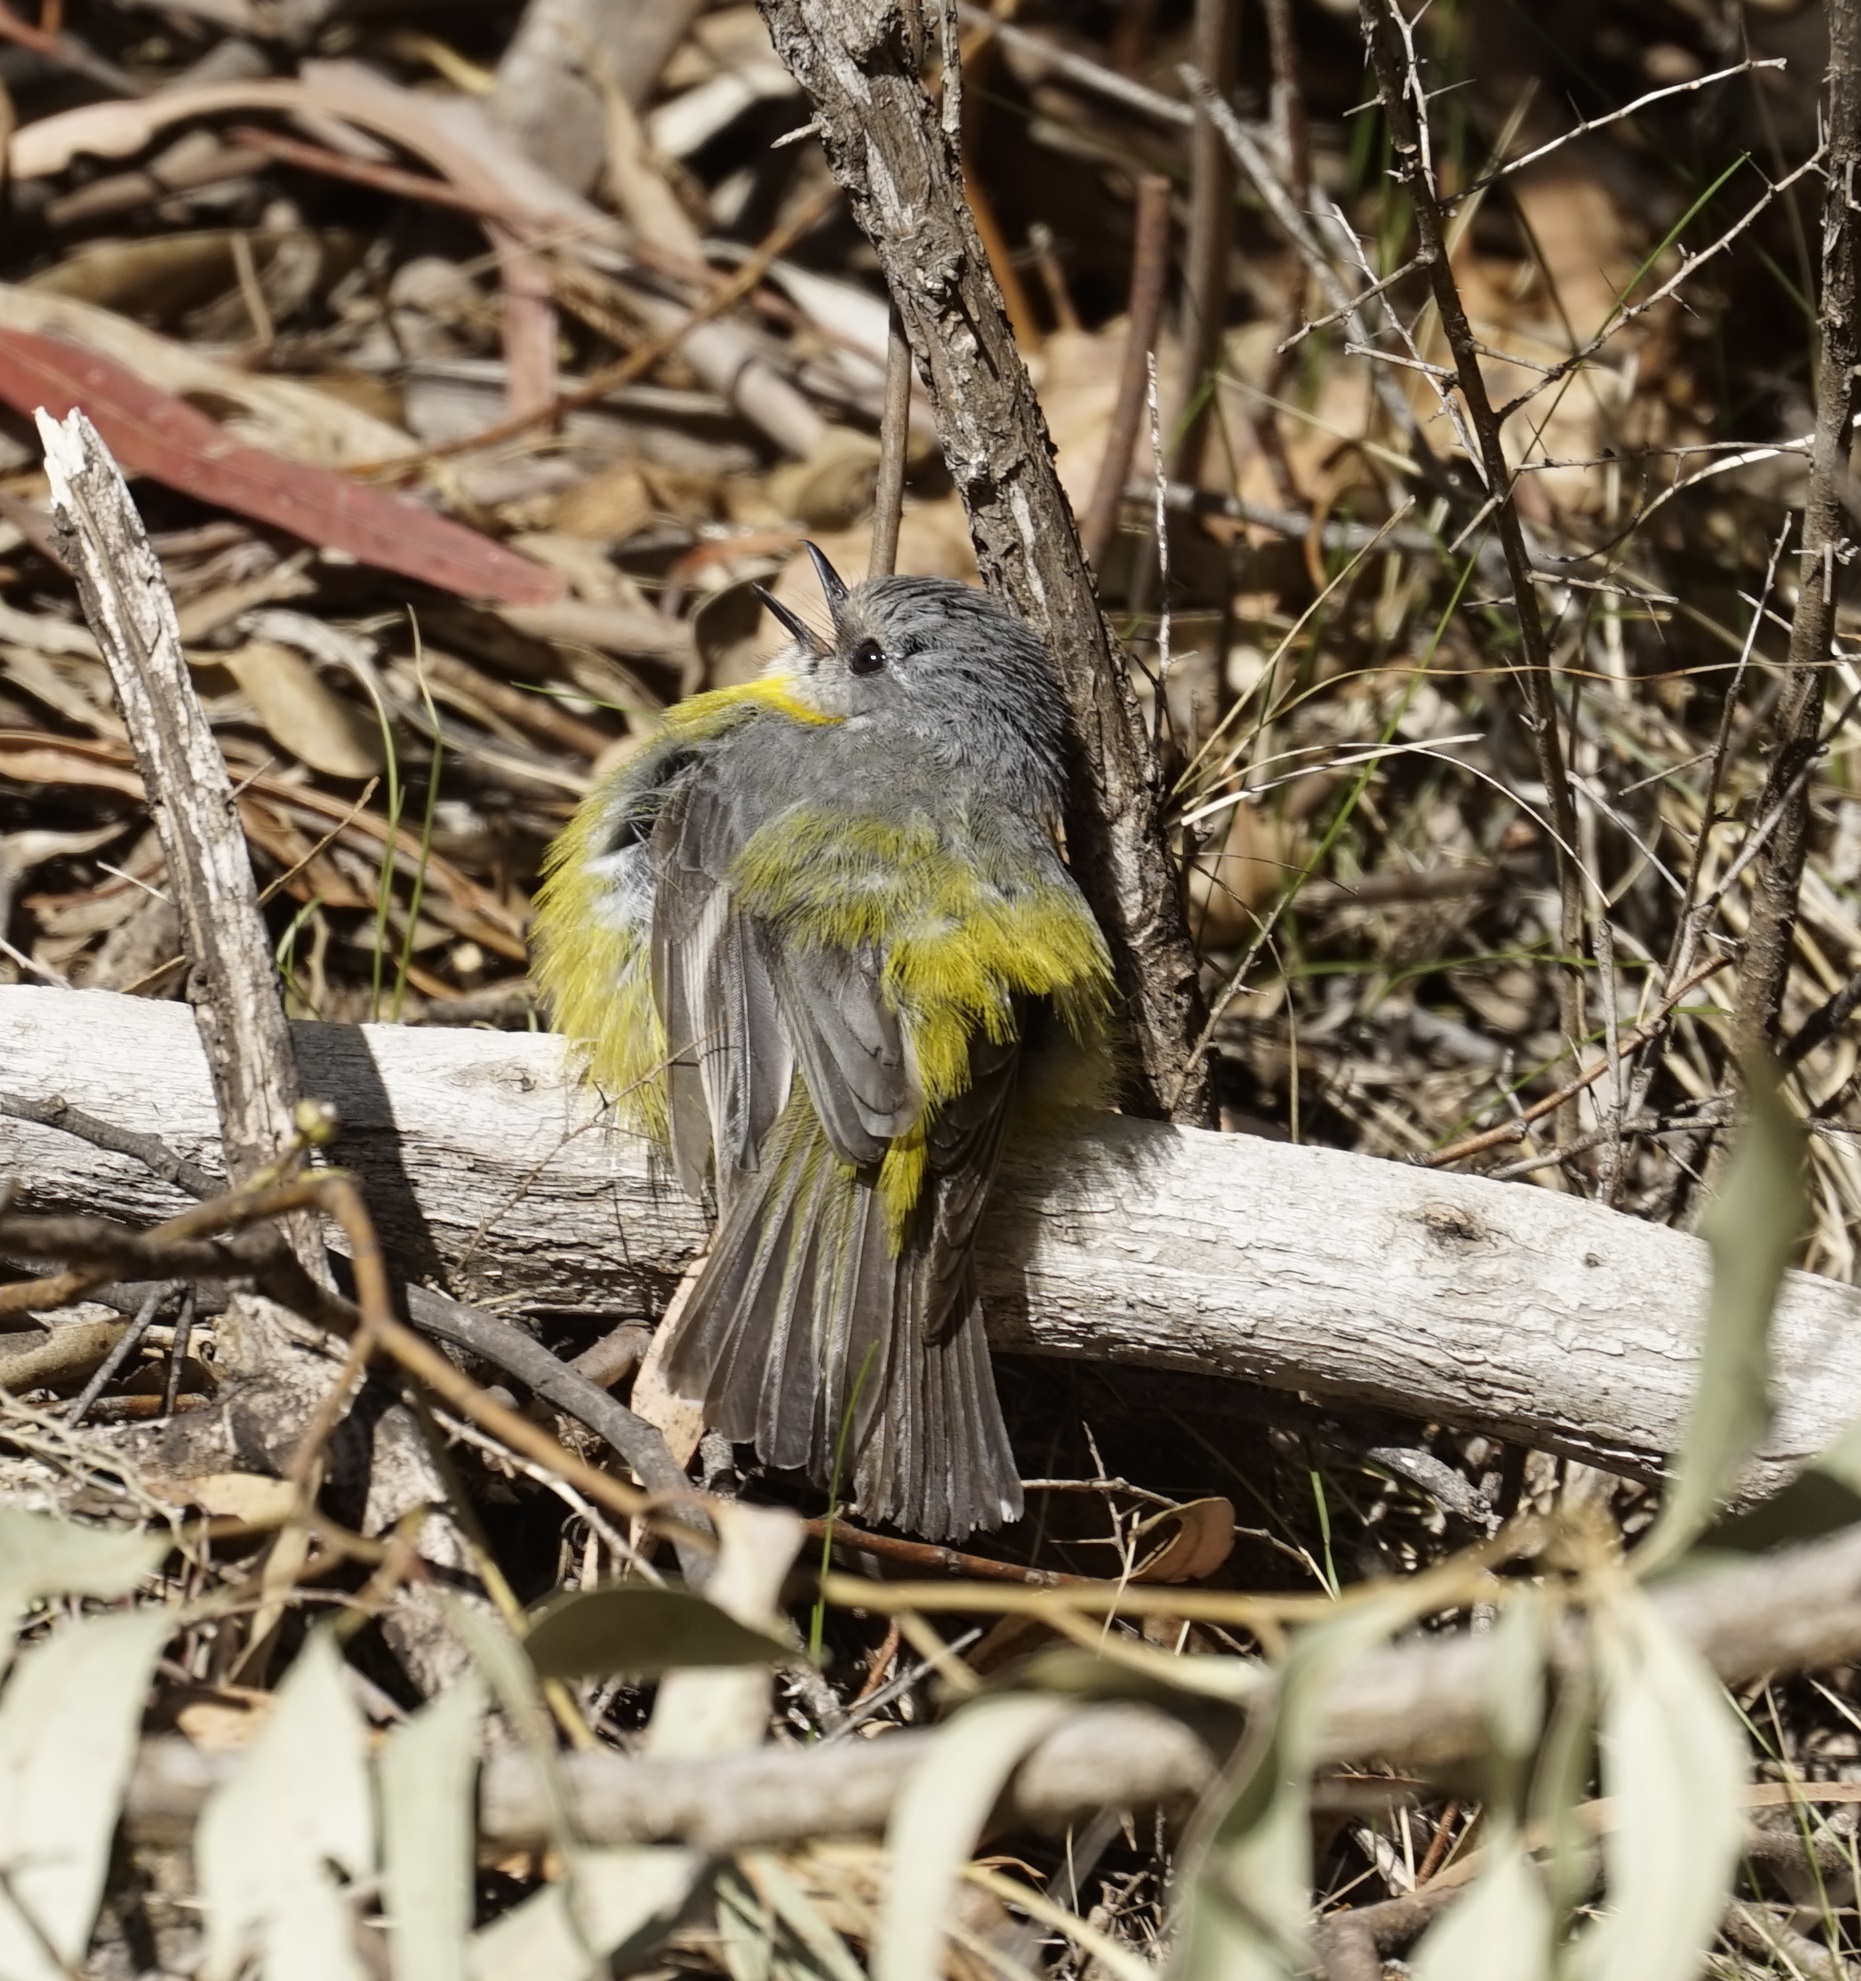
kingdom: Animalia
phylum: Chordata
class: Aves
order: Passeriformes
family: Petroicidae
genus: Eopsaltria
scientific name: Eopsaltria australis
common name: Eastern yellow robin
